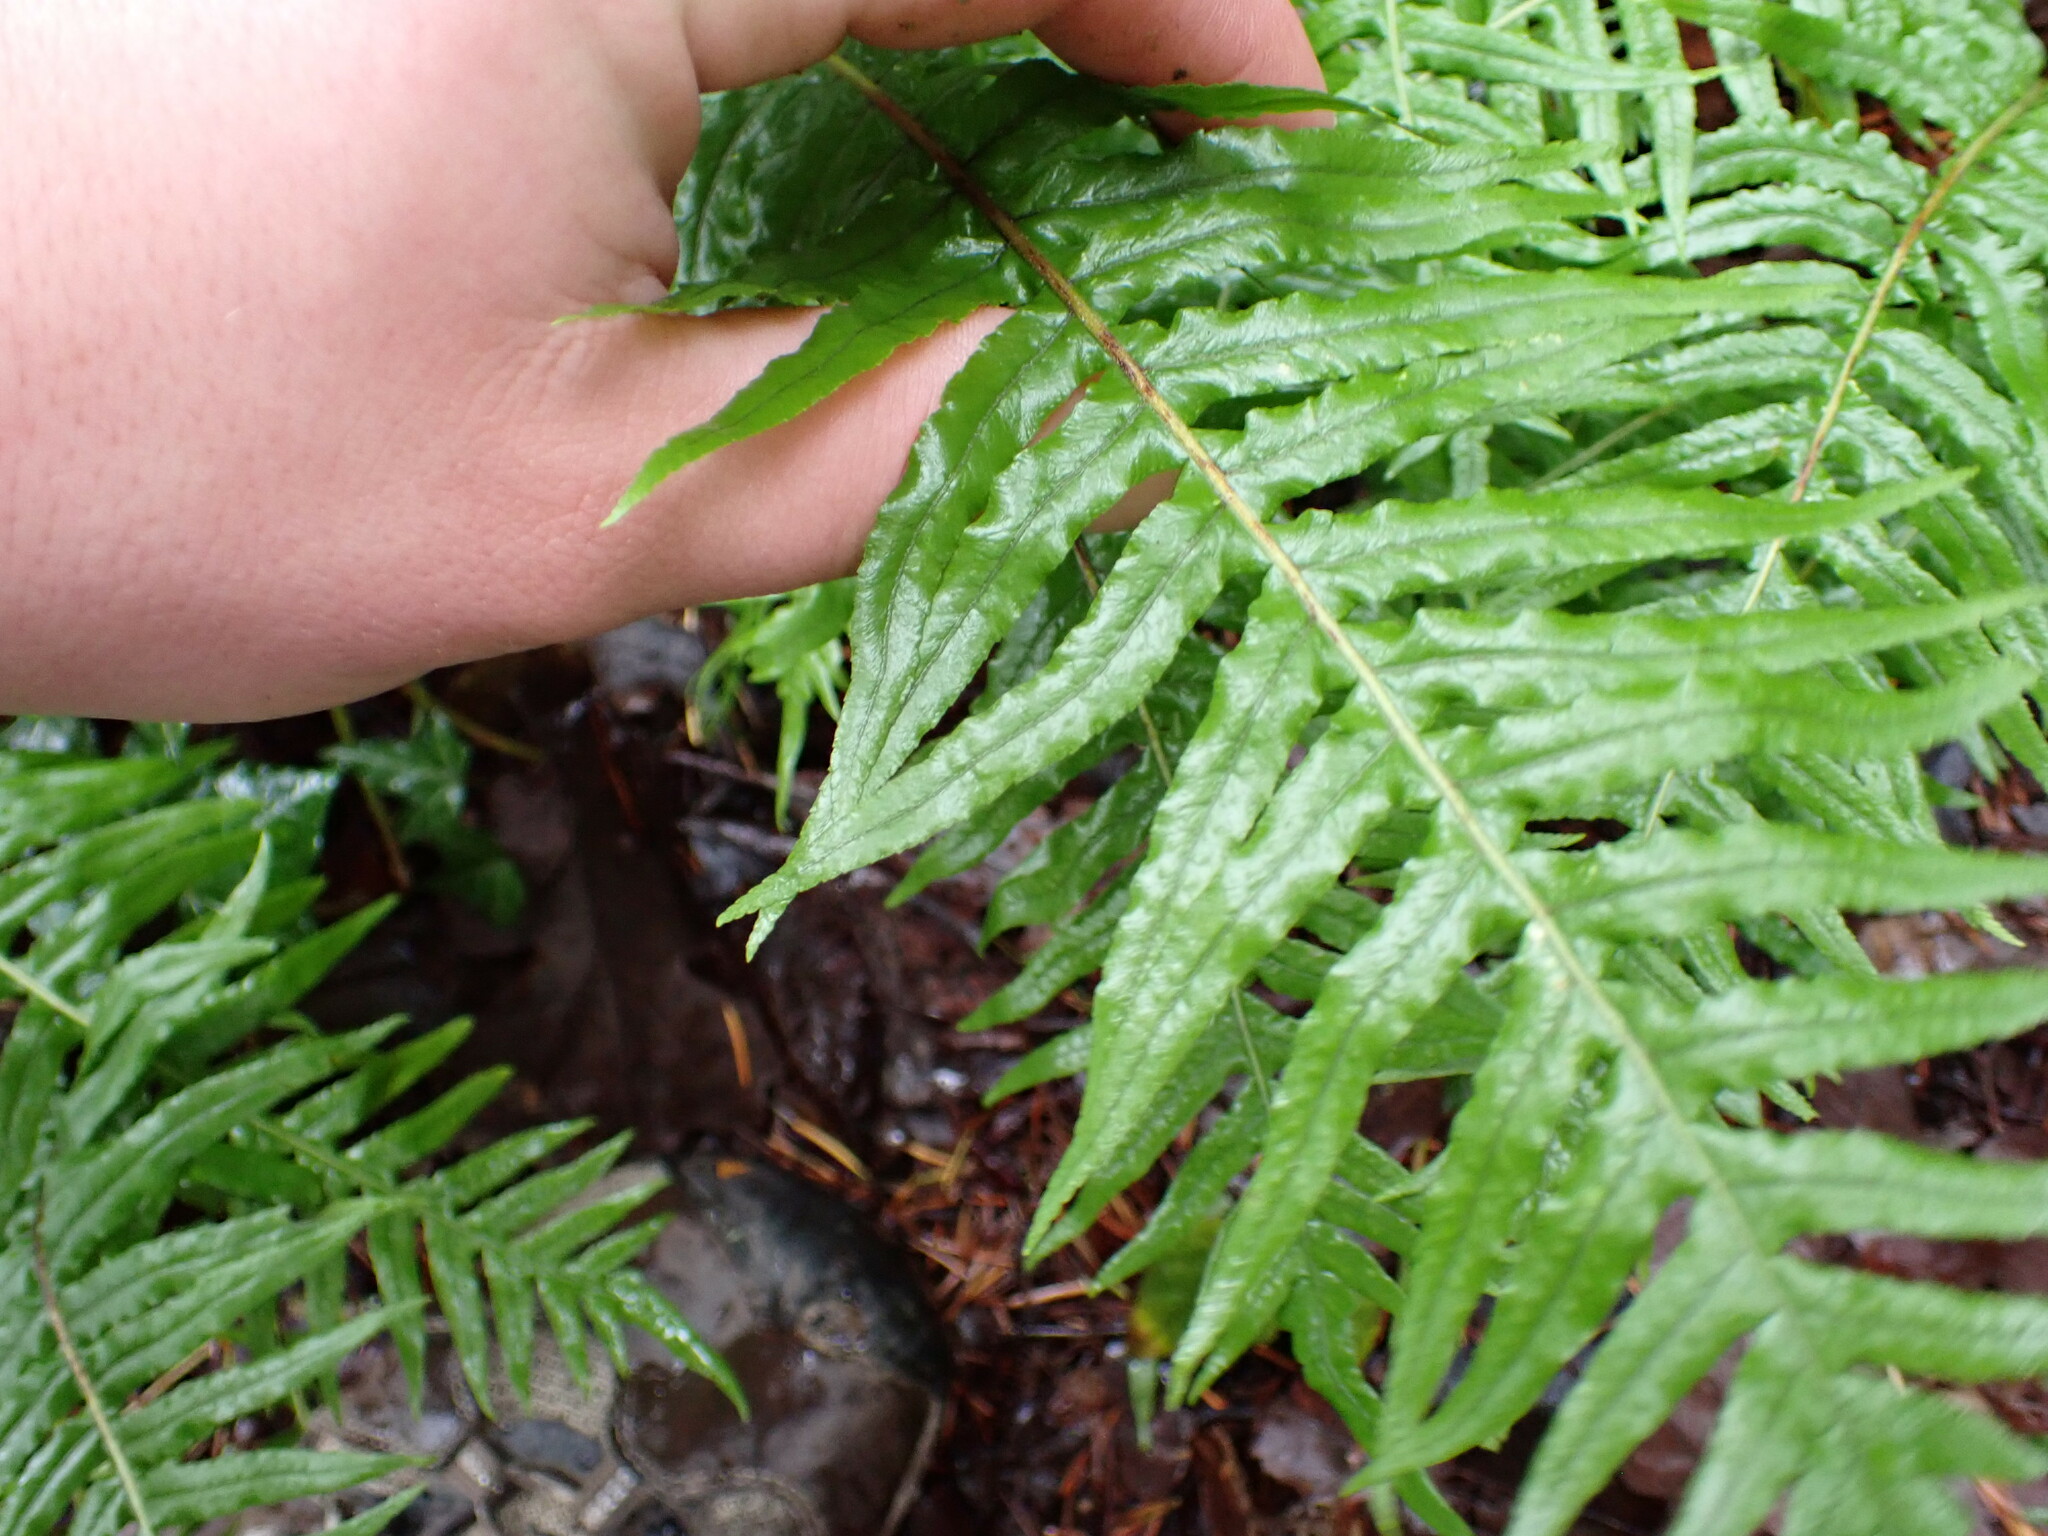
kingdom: Plantae
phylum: Tracheophyta
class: Polypodiopsida
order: Polypodiales
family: Polypodiaceae
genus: Polypodium
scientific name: Polypodium glycyrrhiza
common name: Licorice fern
